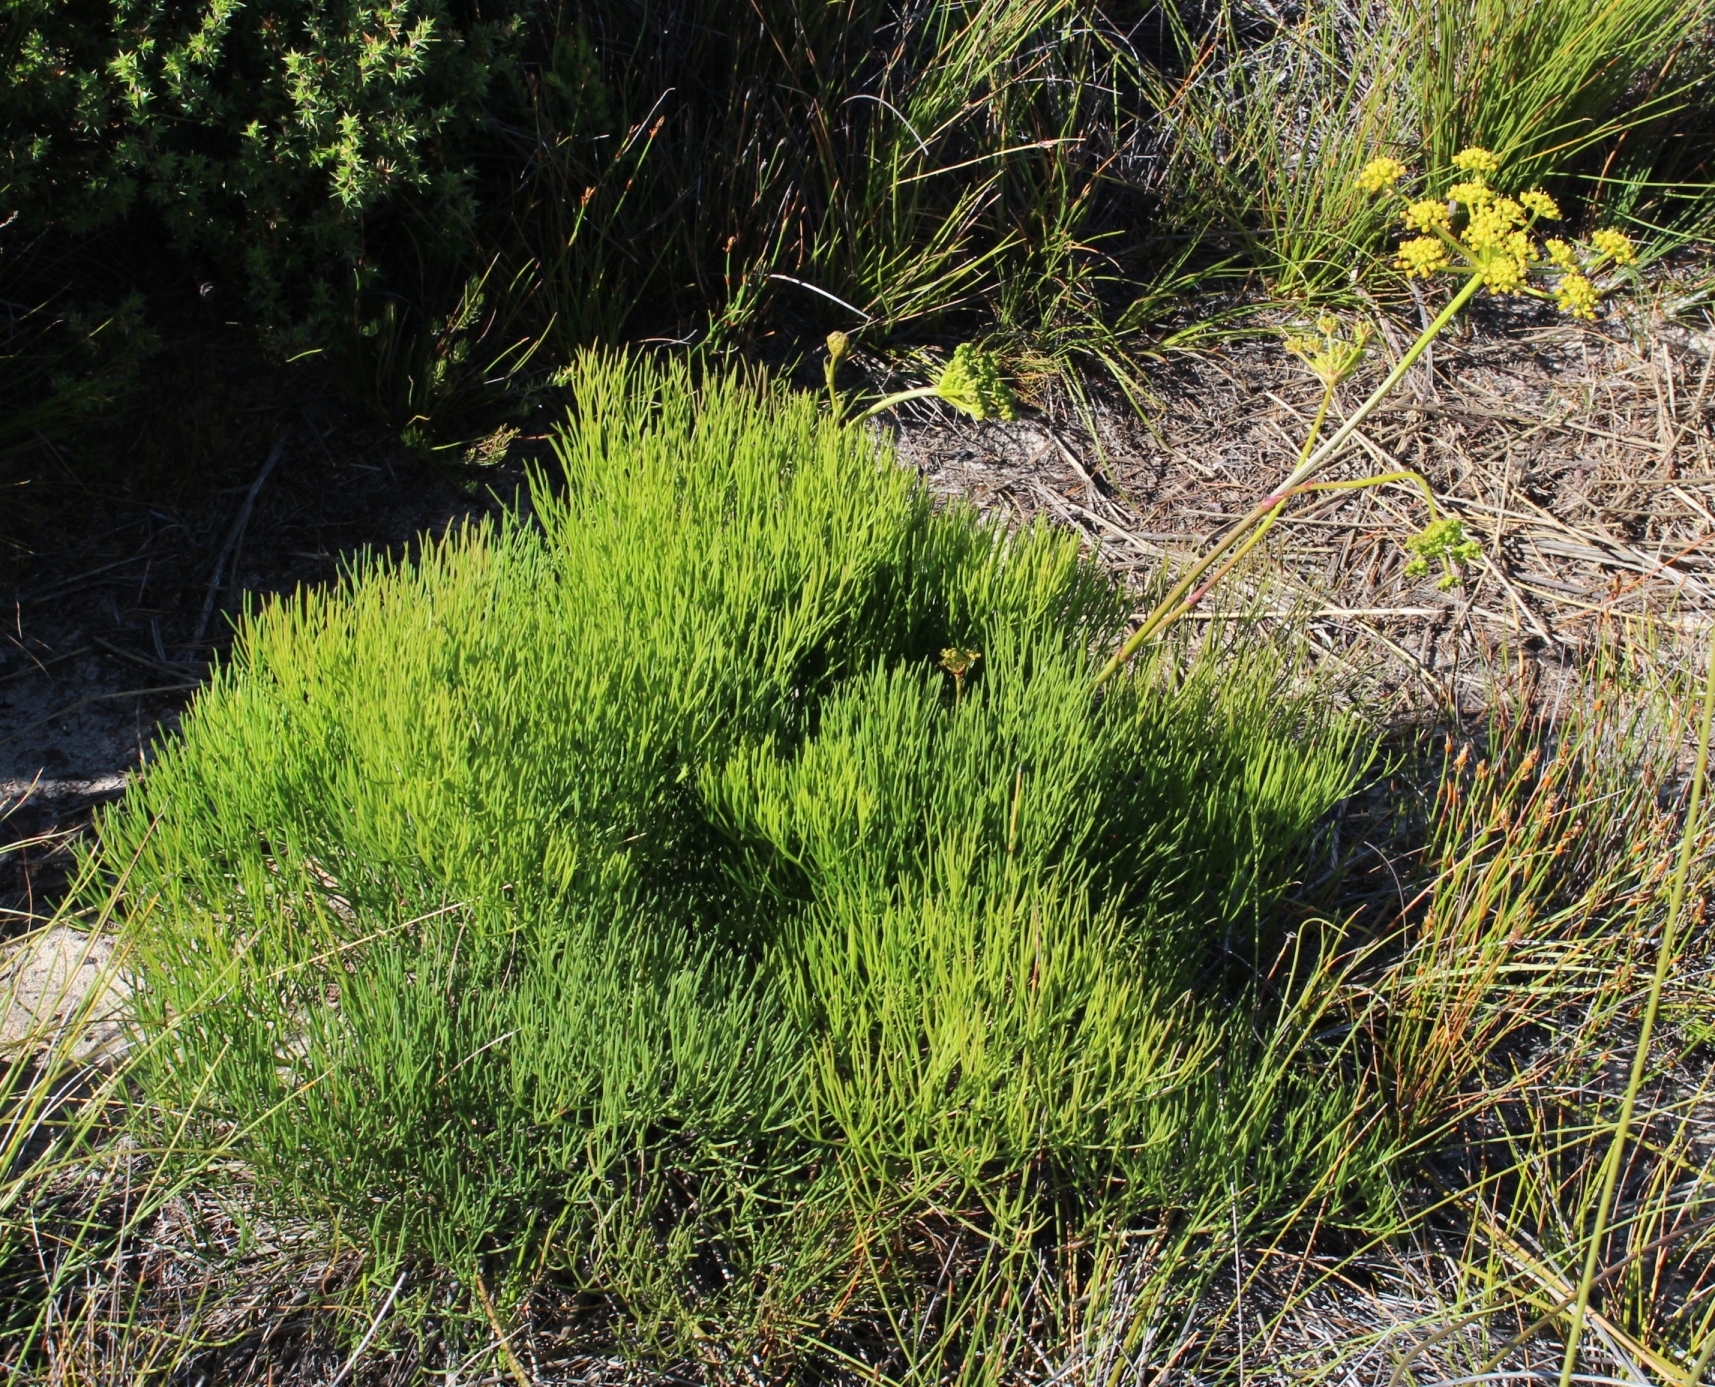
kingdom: Plantae
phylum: Tracheophyta
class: Magnoliopsida
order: Apiales
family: Apiaceae
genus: Nanobubon
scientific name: Nanobubon strictum
